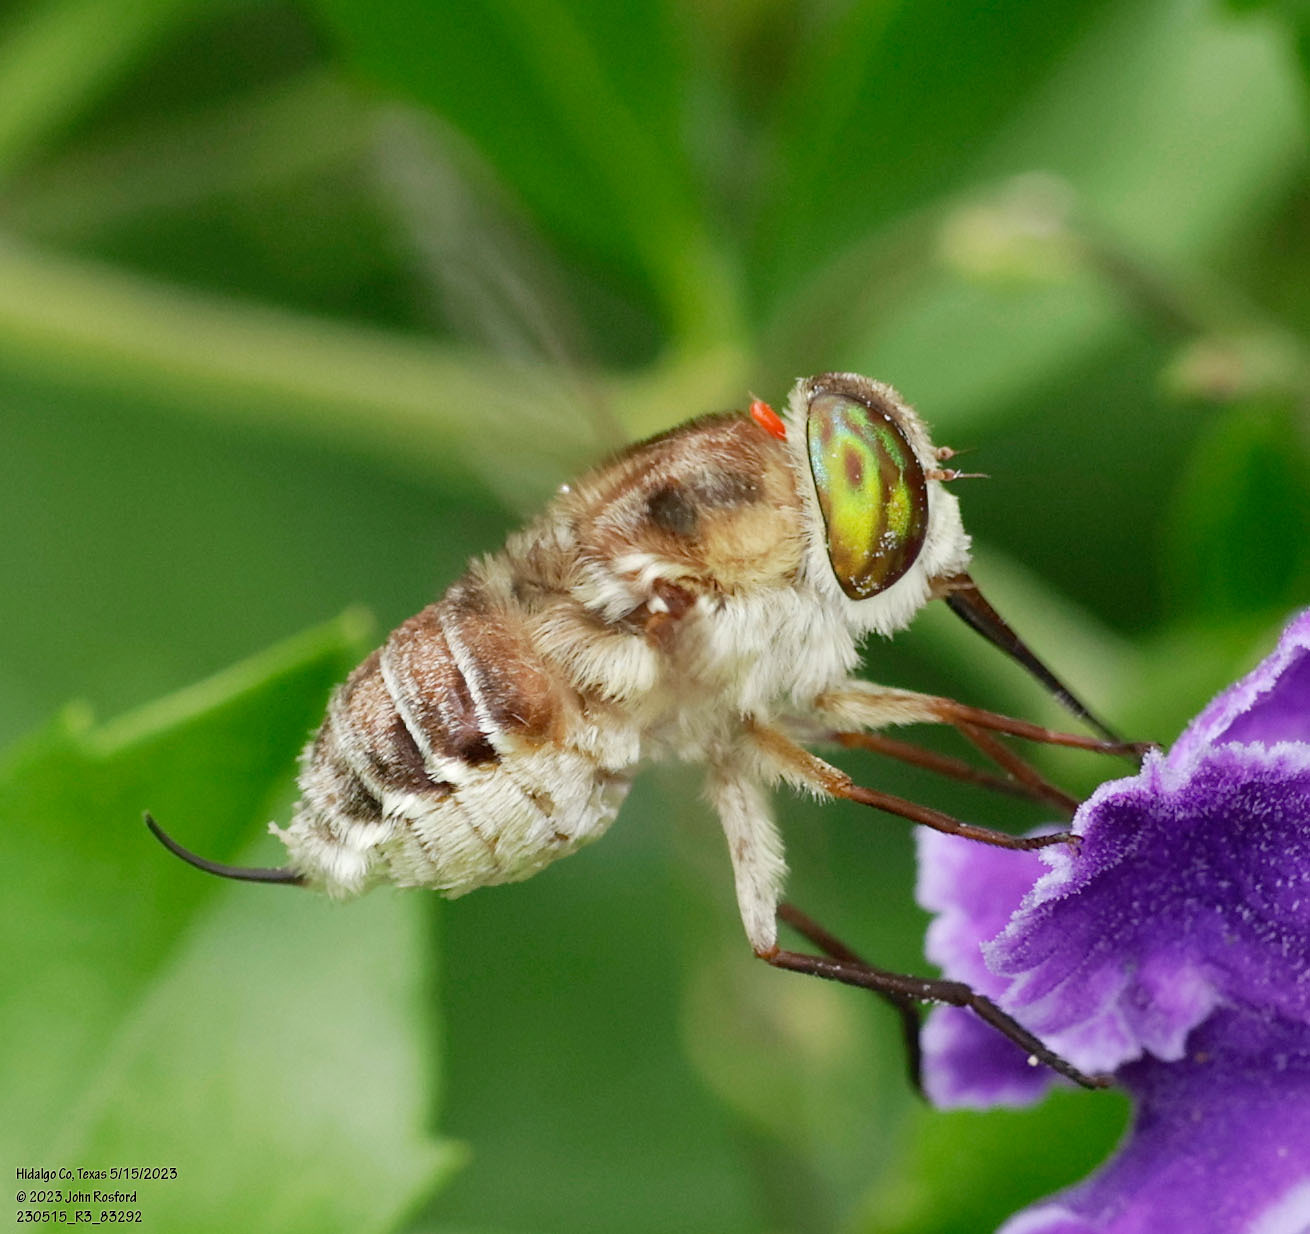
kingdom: Animalia
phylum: Arthropoda
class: Insecta
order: Diptera
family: Nemestrinidae
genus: Neorhynchocephalus
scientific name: Neorhynchocephalus volaticus
